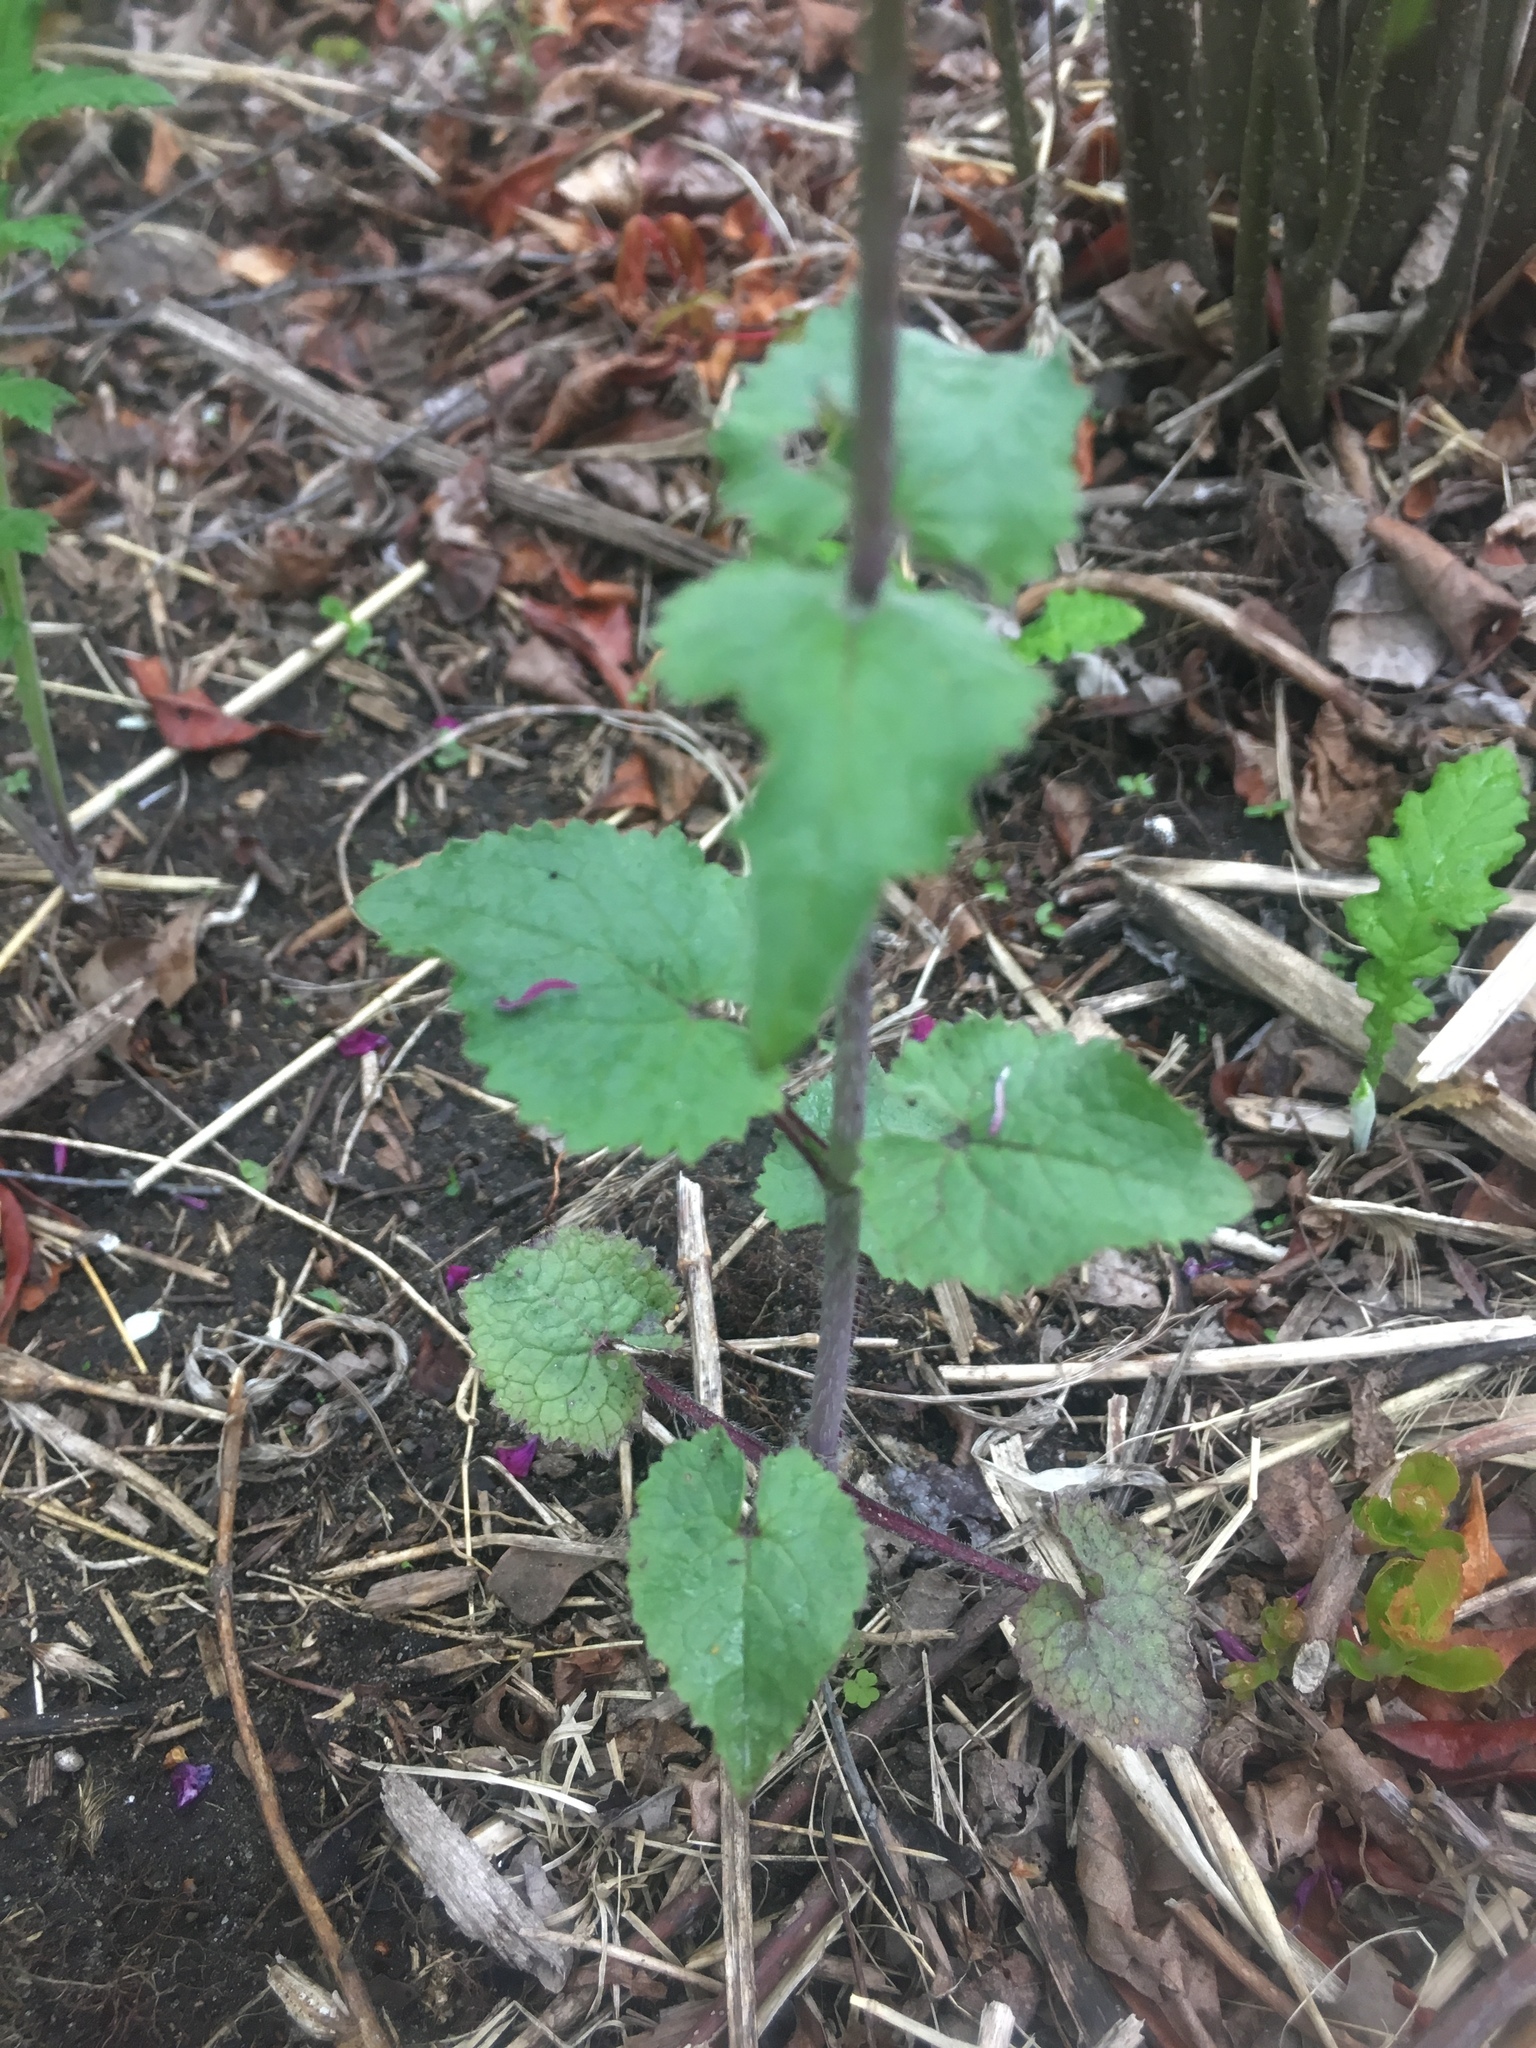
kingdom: Plantae
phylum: Tracheophyta
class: Magnoliopsida
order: Brassicales
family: Brassicaceae
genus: Lunaria
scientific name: Lunaria annua
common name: Honesty
